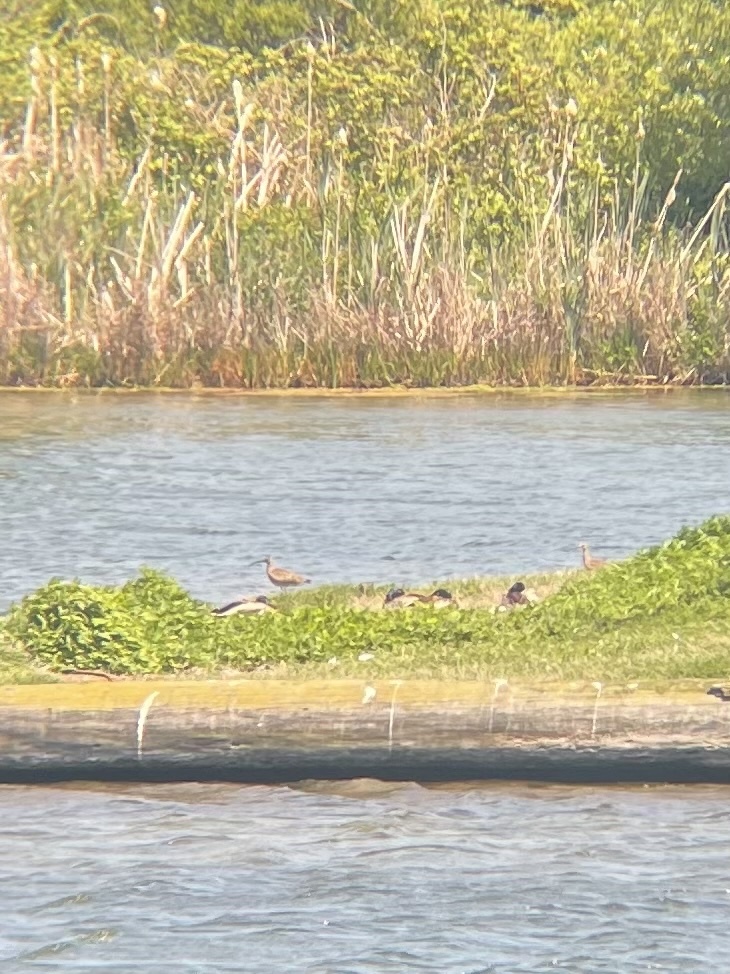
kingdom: Animalia
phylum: Chordata
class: Aves
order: Anseriformes
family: Anatidae
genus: Anas
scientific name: Anas platyrhynchos
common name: Mallard
